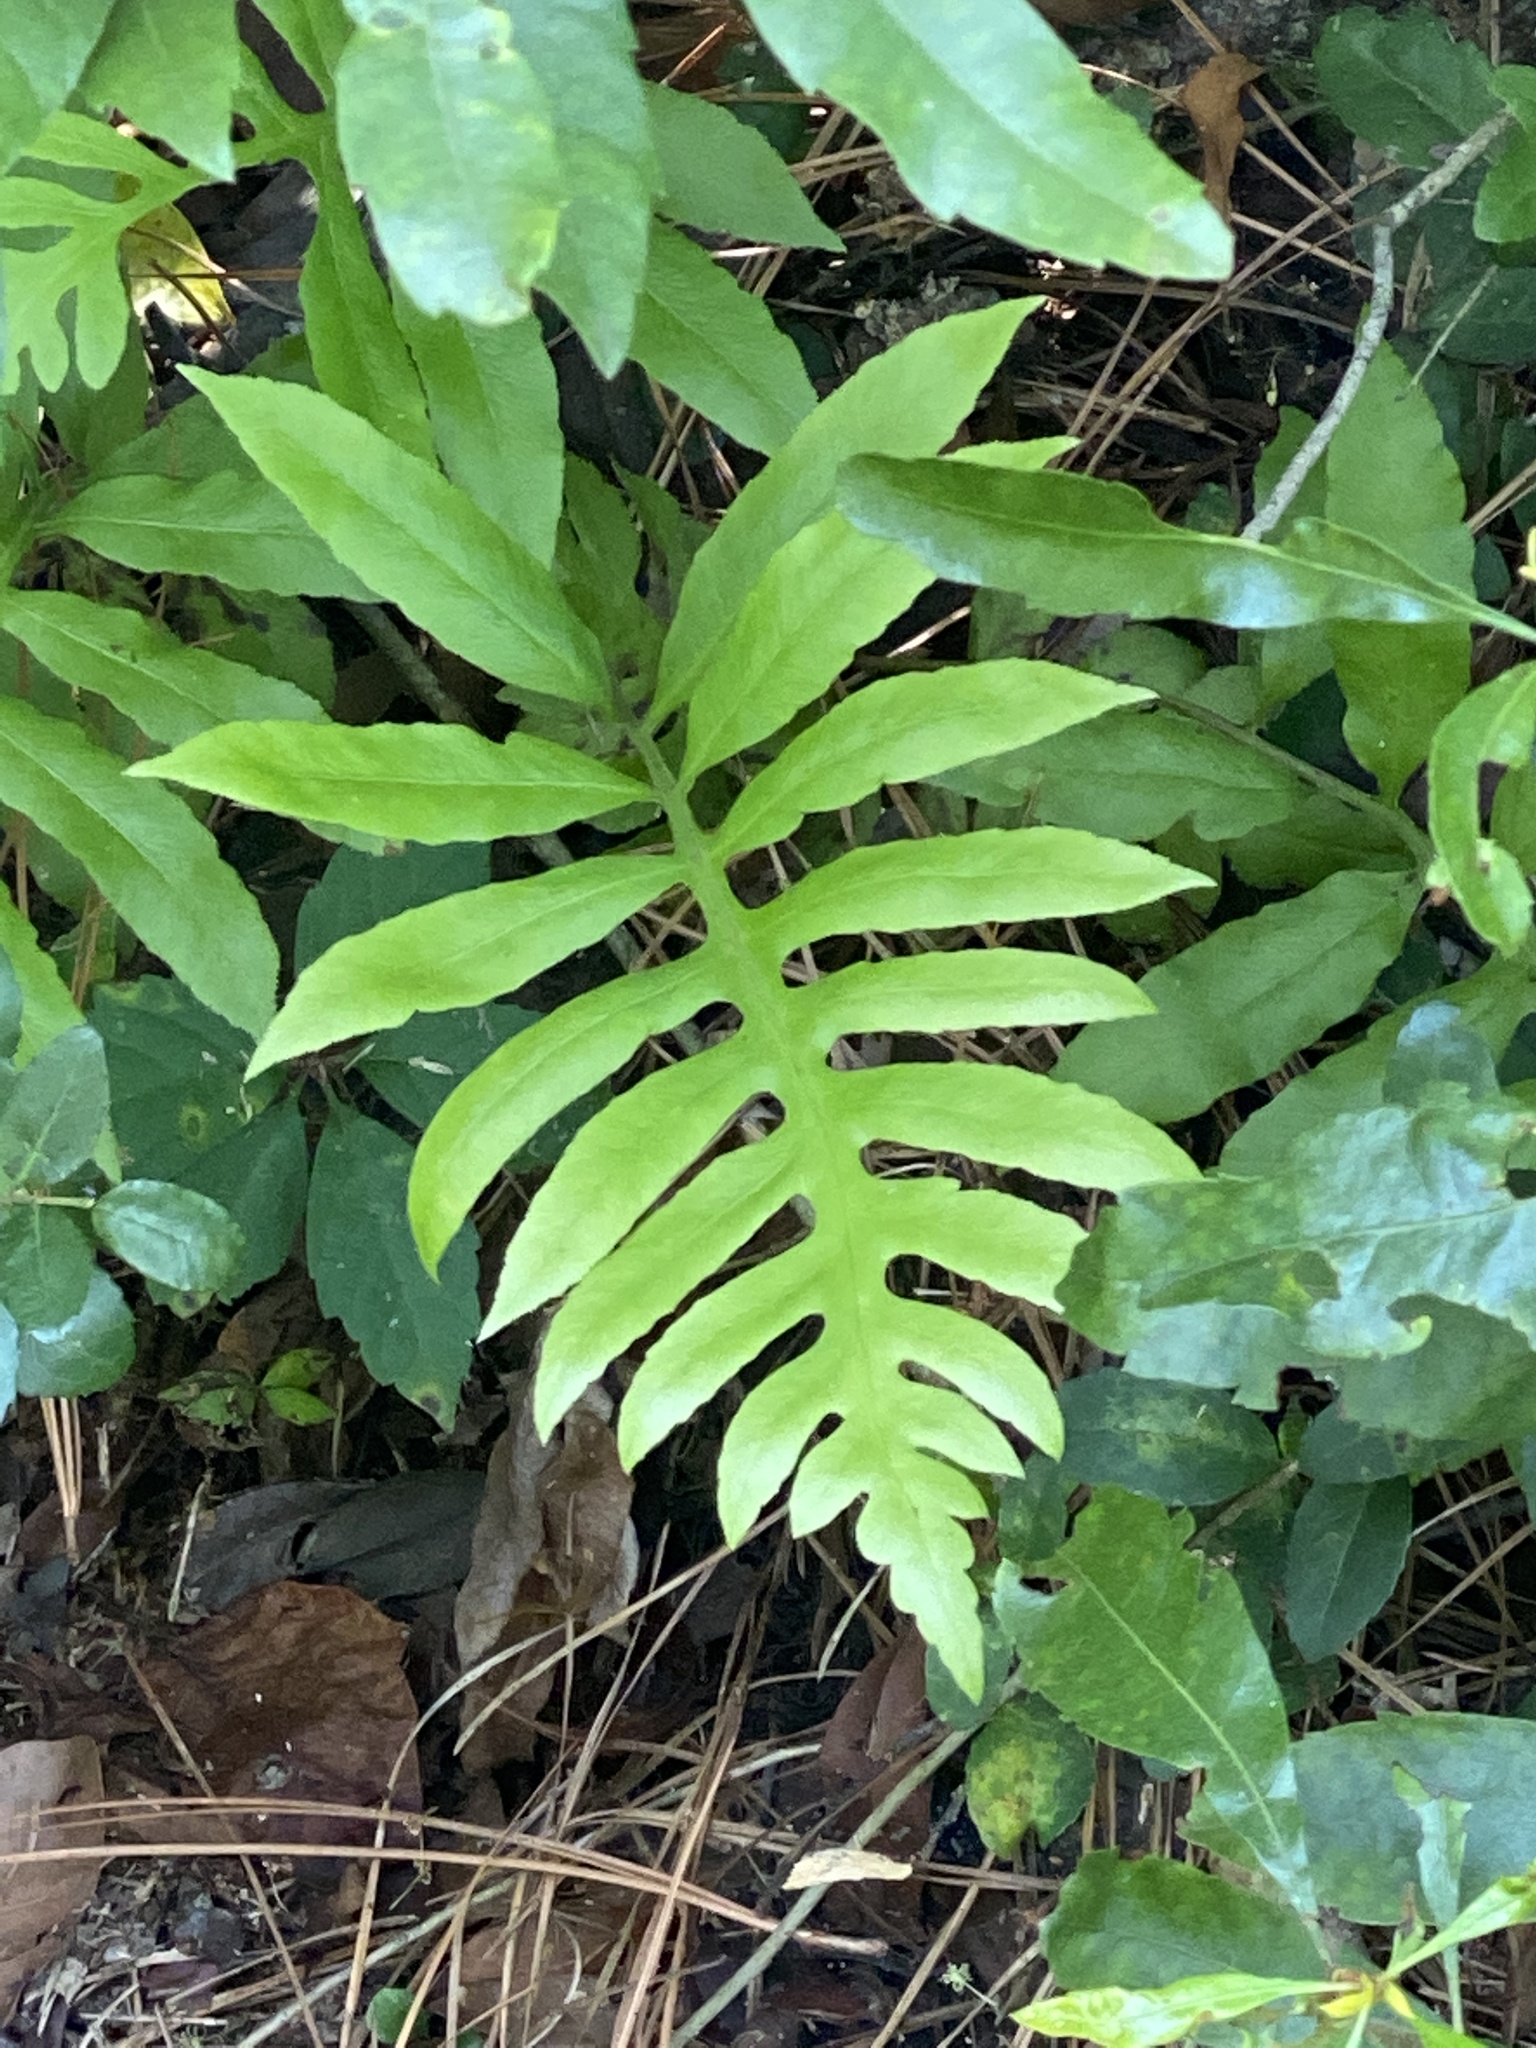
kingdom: Plantae
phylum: Tracheophyta
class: Polypodiopsida
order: Polypodiales
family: Blechnaceae
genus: Lorinseria
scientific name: Lorinseria areolata
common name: Dwarf chain fern
